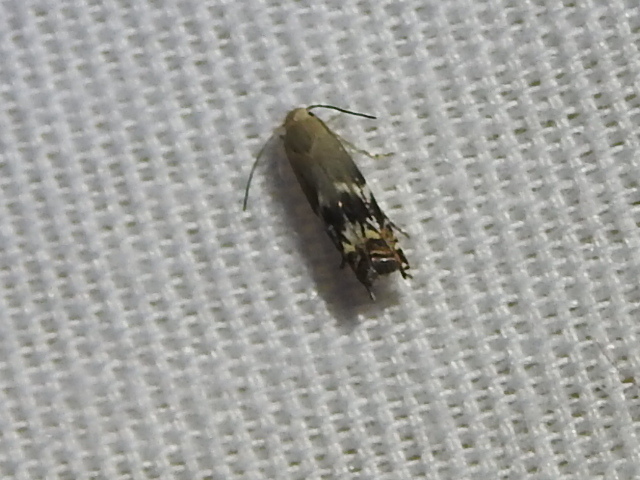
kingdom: Animalia
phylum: Arthropoda
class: Insecta
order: Lepidoptera
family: Gelechiidae
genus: Calliprora
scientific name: Calliprora sexstrigella
